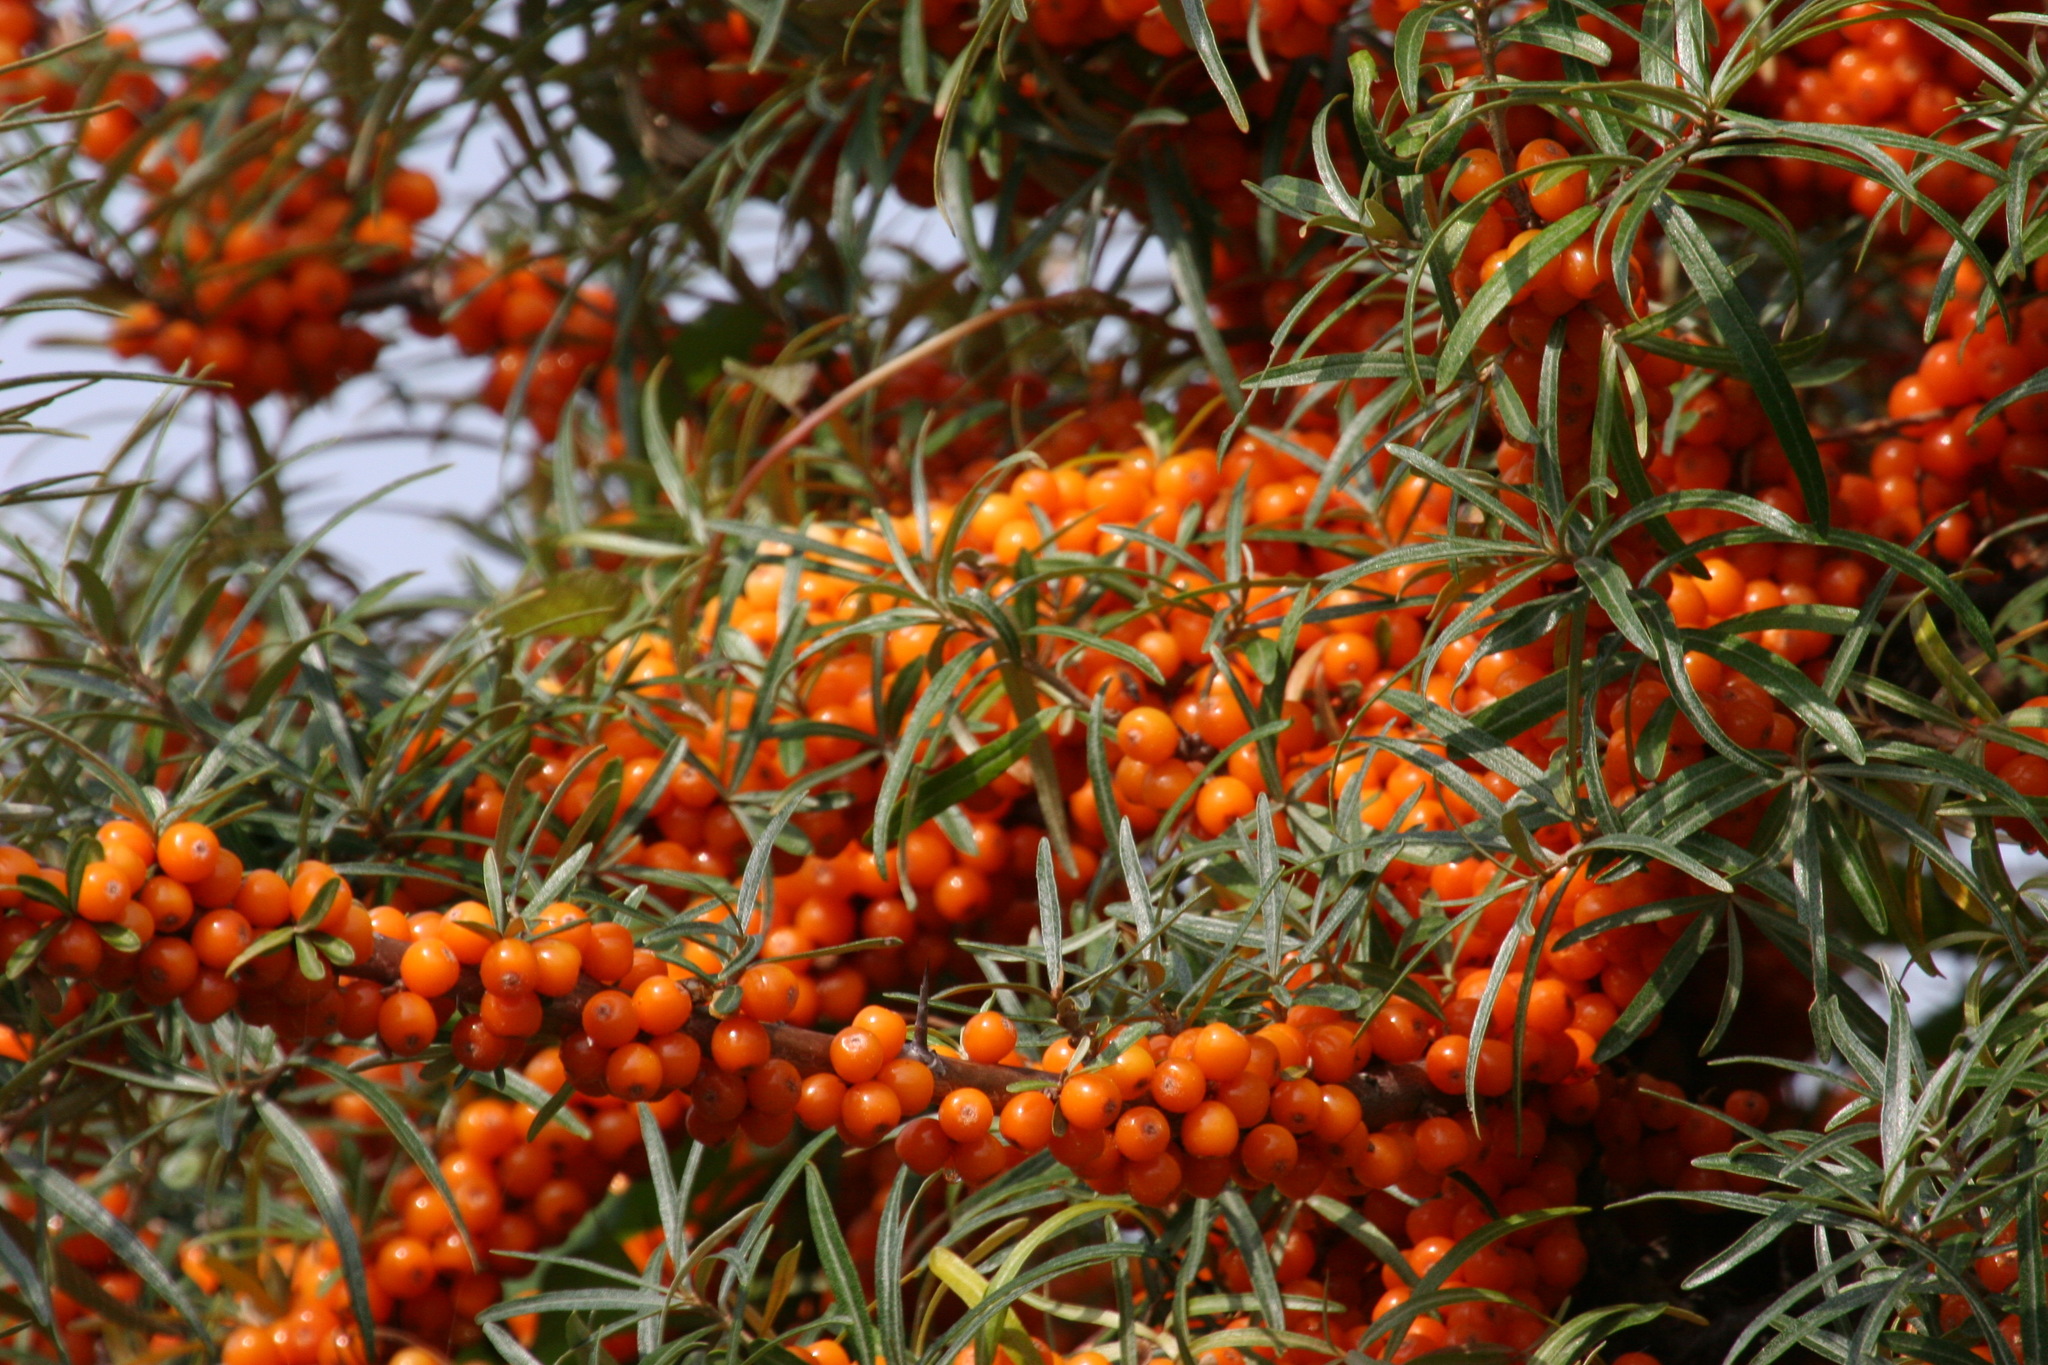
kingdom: Plantae
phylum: Tracheophyta
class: Magnoliopsida
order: Rosales
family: Elaeagnaceae
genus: Hippophae
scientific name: Hippophae rhamnoides
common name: Sea-buckthorn
